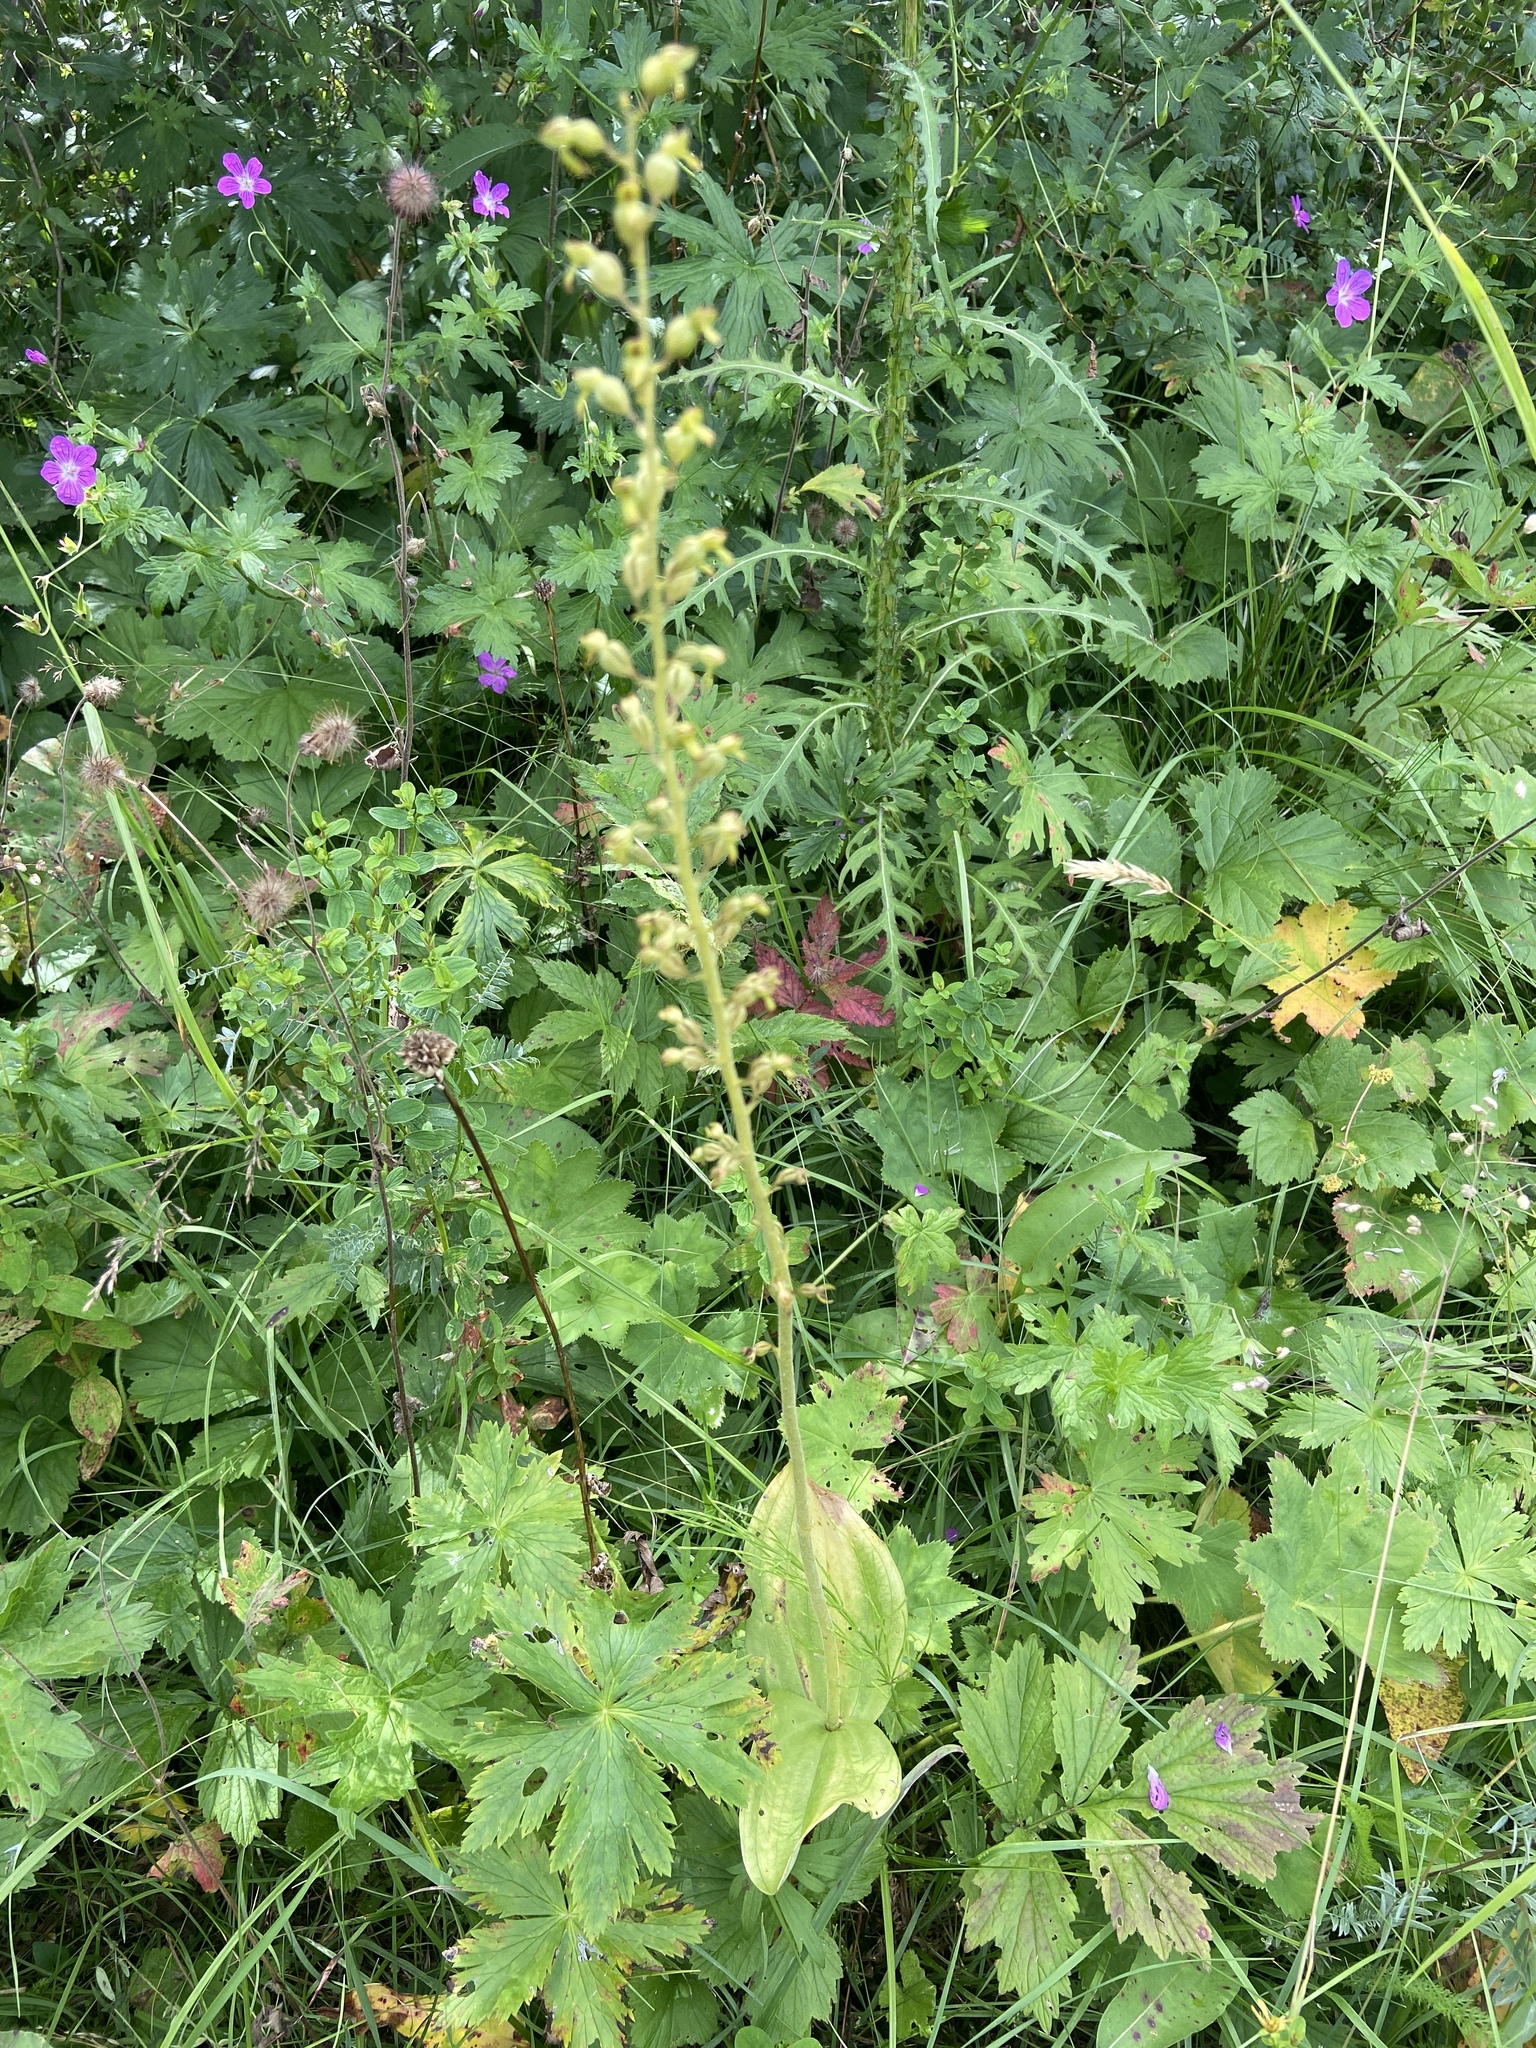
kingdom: Plantae
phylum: Tracheophyta
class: Liliopsida
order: Asparagales
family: Orchidaceae
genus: Neottia
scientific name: Neottia ovata
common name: Common twayblade
